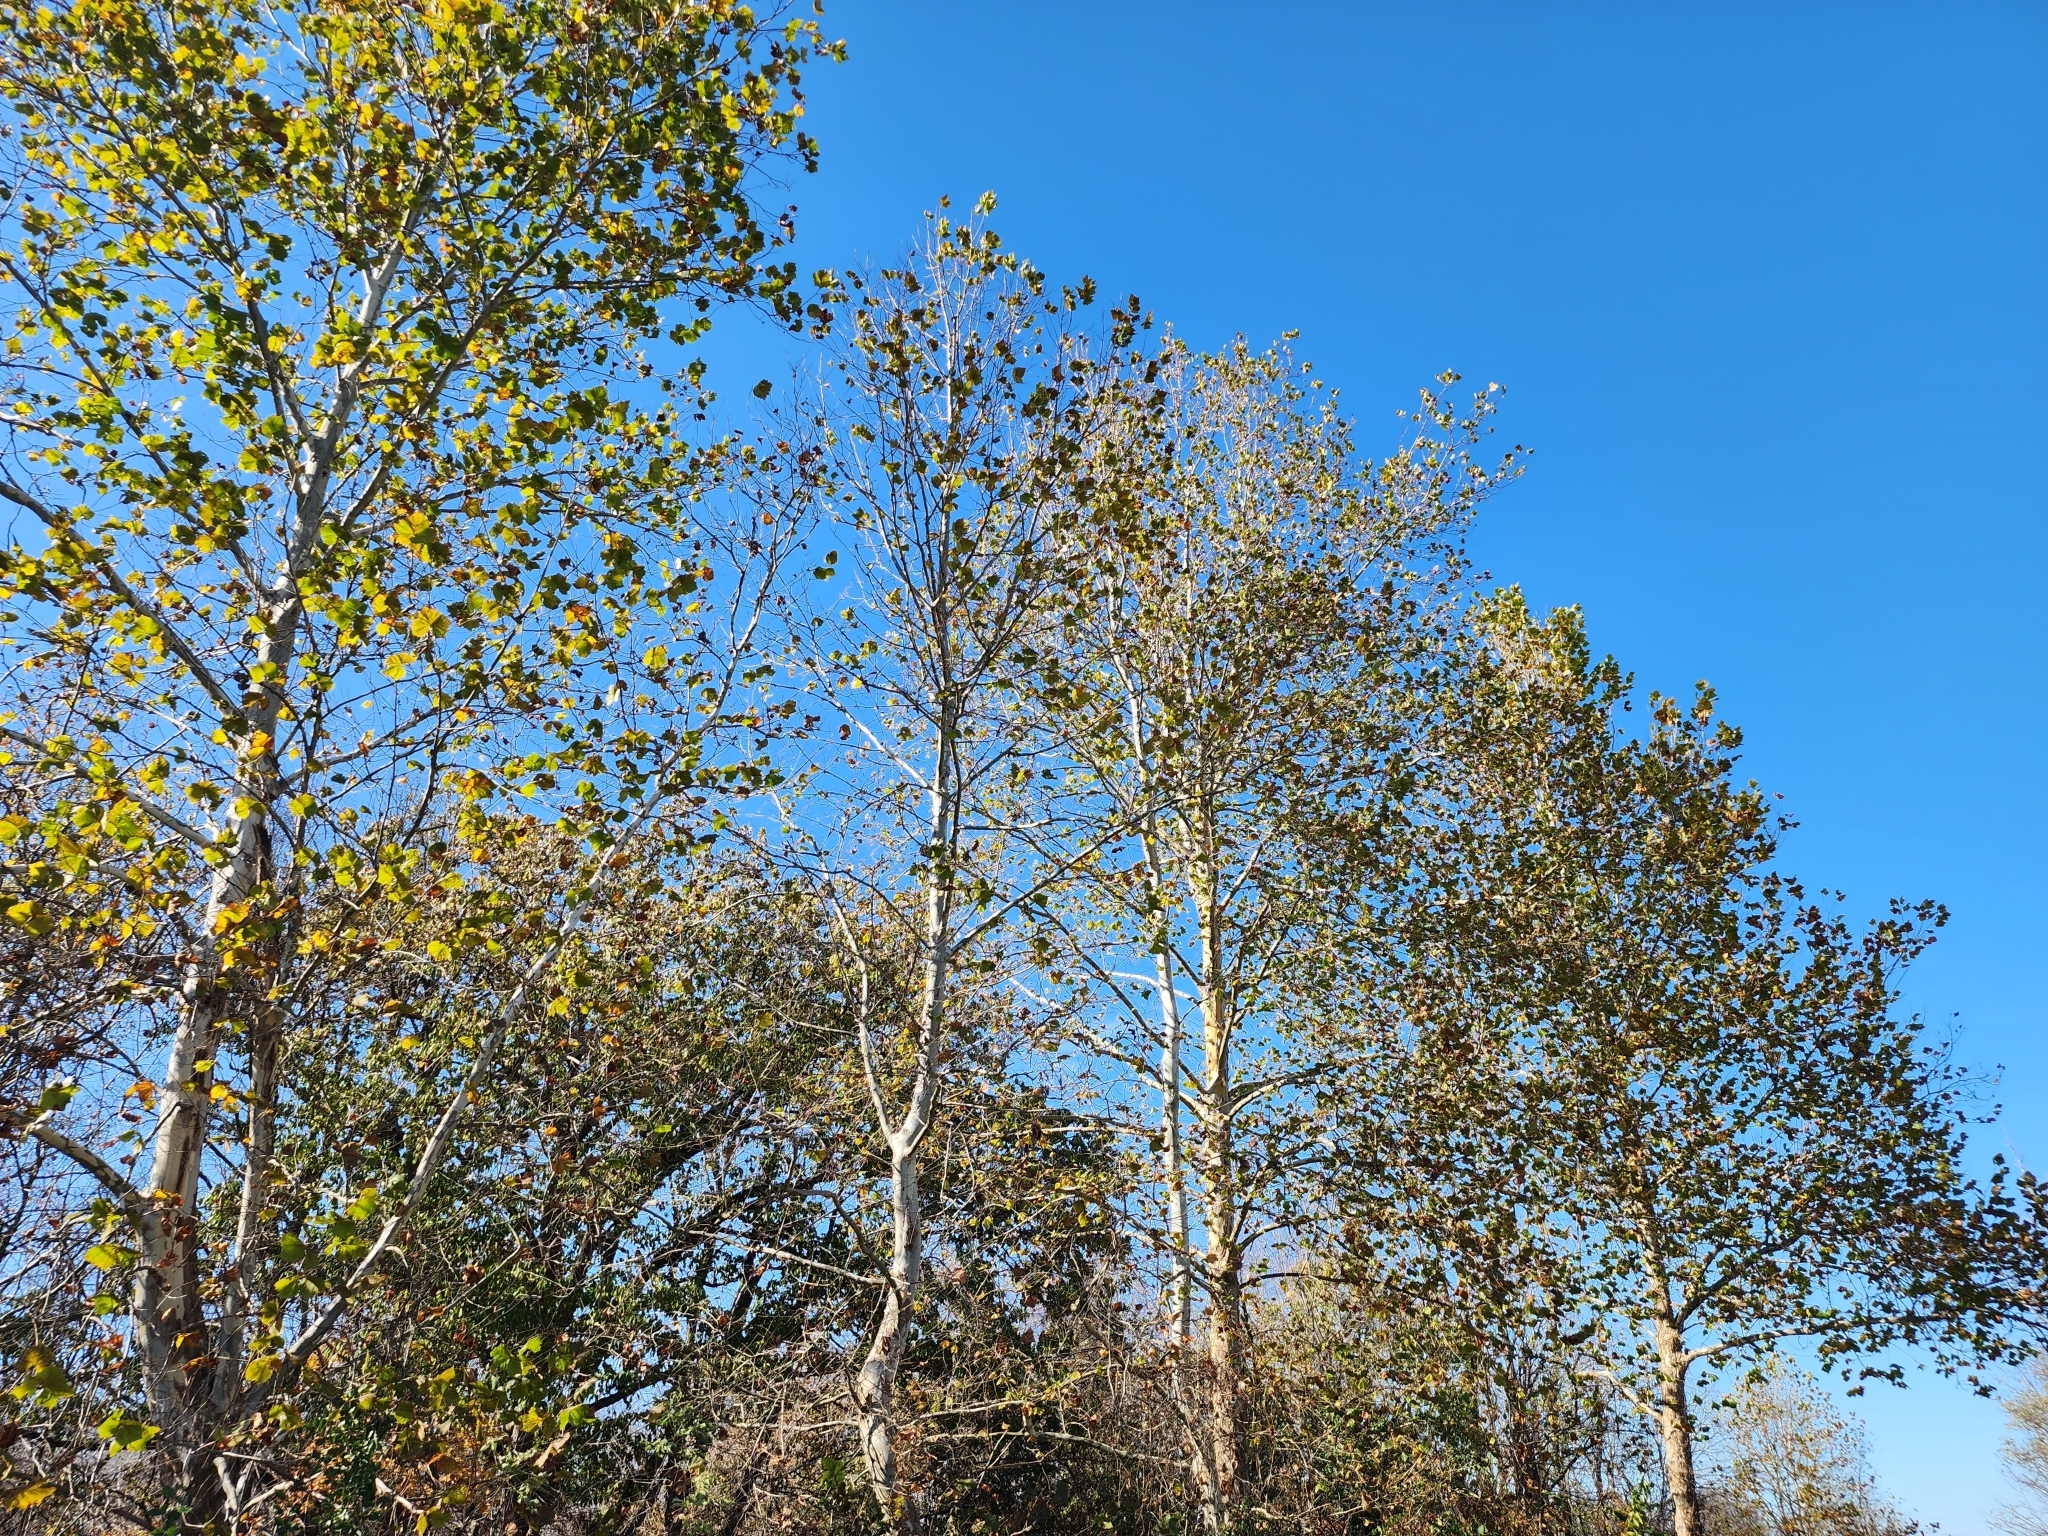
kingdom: Plantae
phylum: Tracheophyta
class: Magnoliopsida
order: Proteales
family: Platanaceae
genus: Platanus
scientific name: Platanus occidentalis
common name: American sycamore
